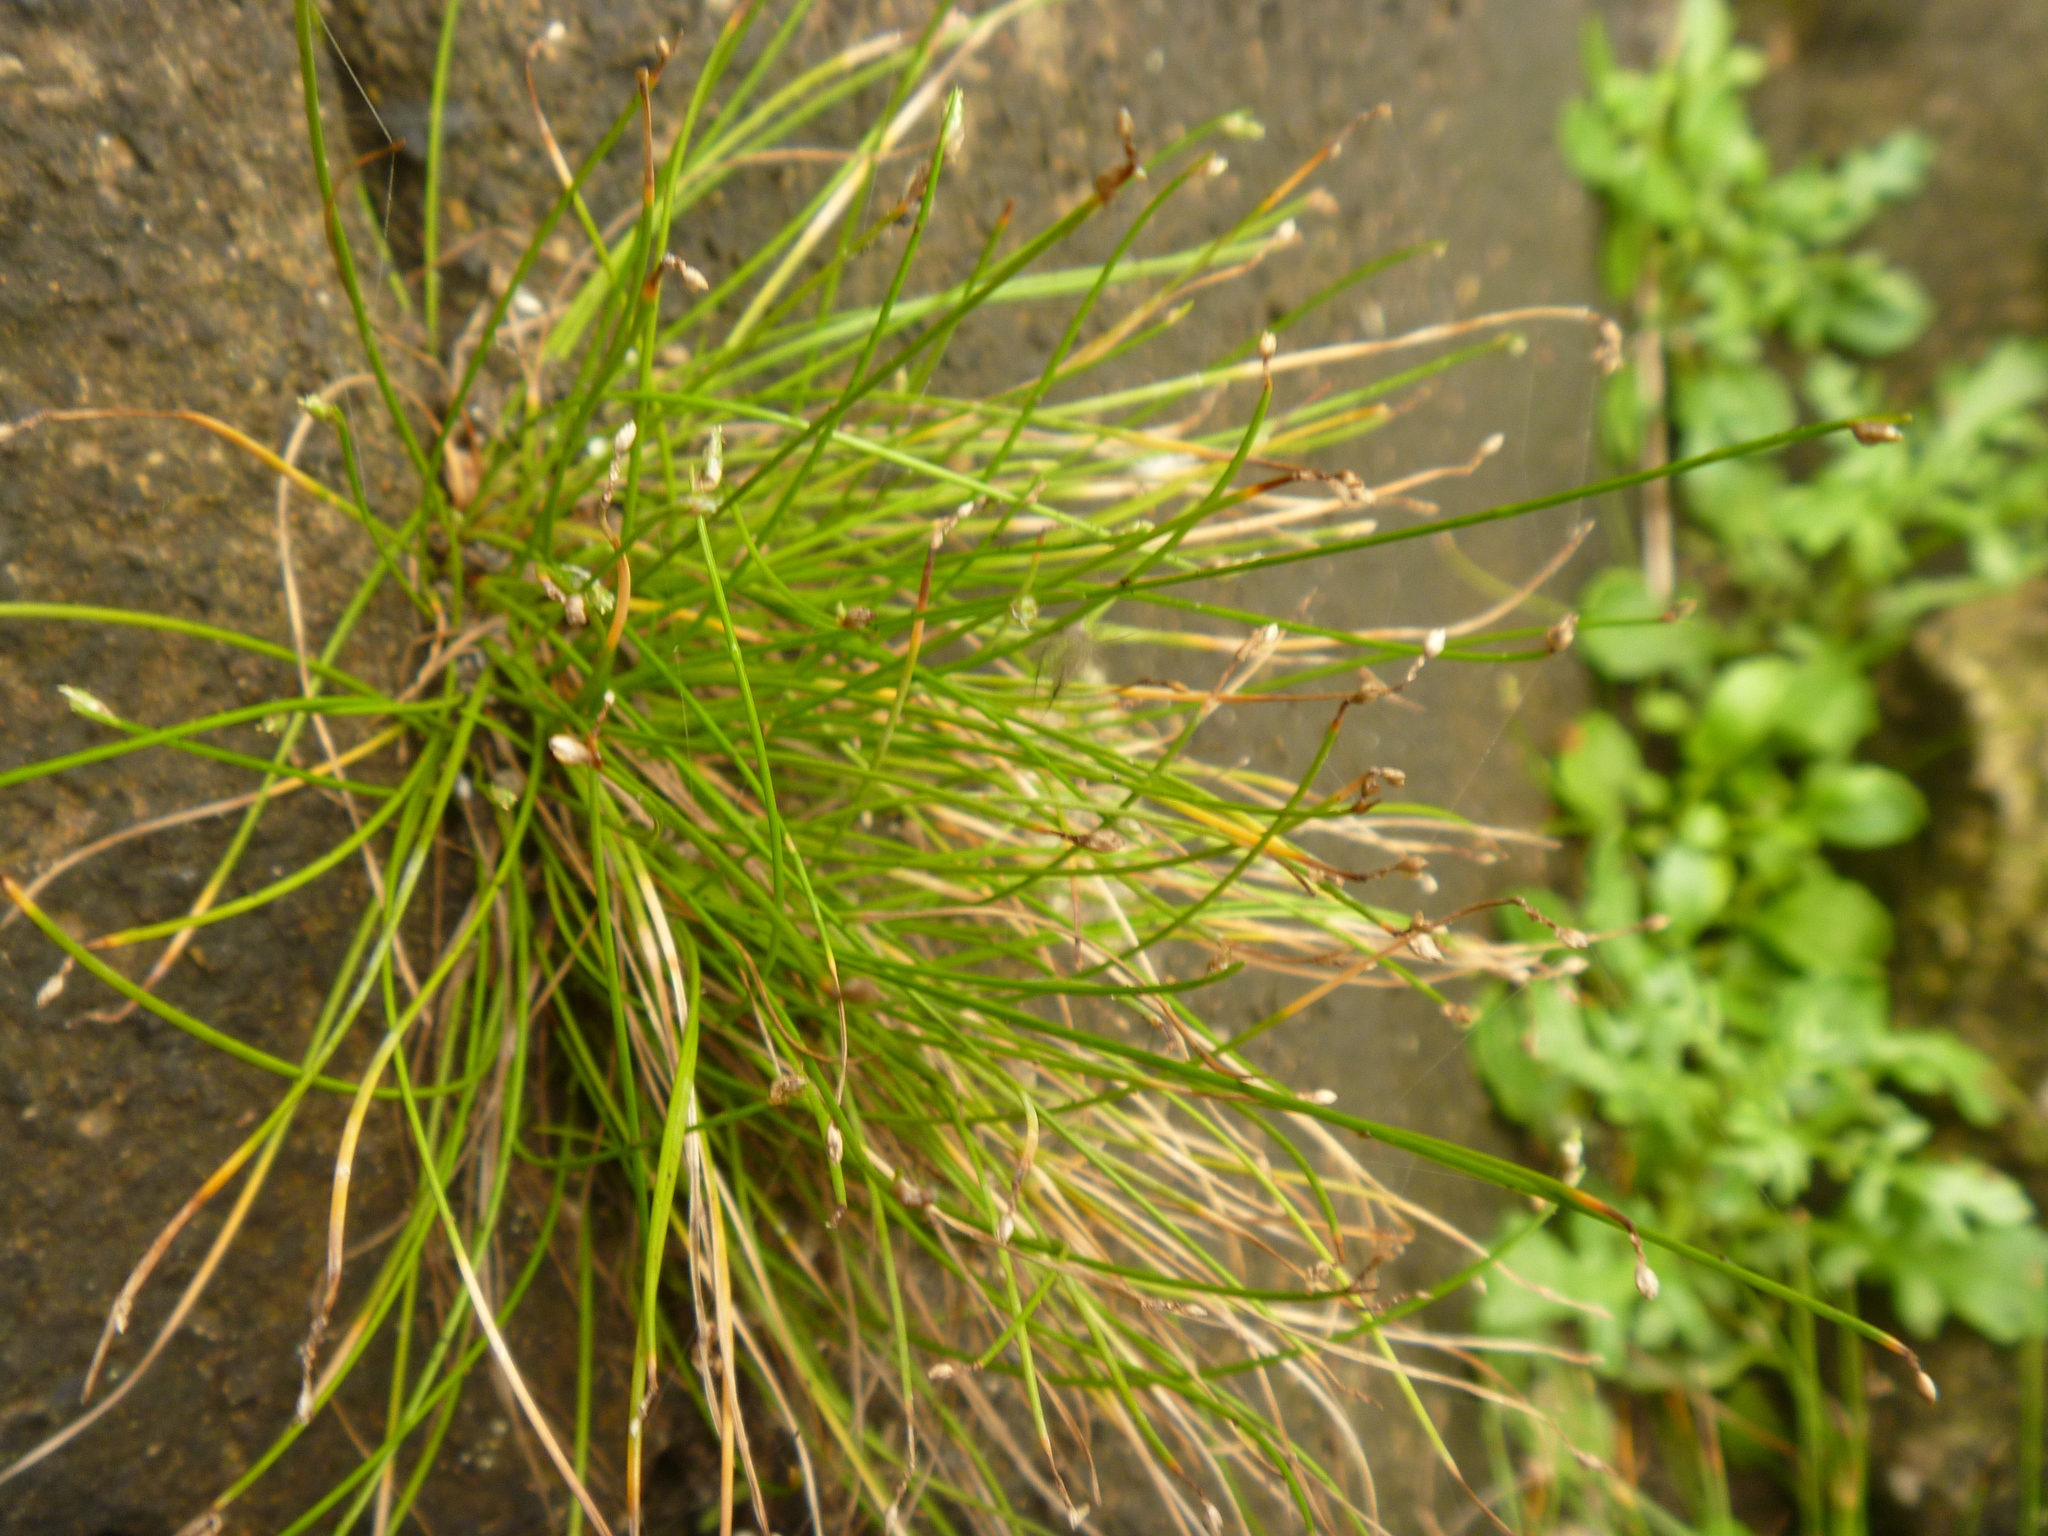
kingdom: Plantae
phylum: Tracheophyta
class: Liliopsida
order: Poales
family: Cyperaceae
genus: Isolepis
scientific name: Isolepis cernua
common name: Slender club-rush
